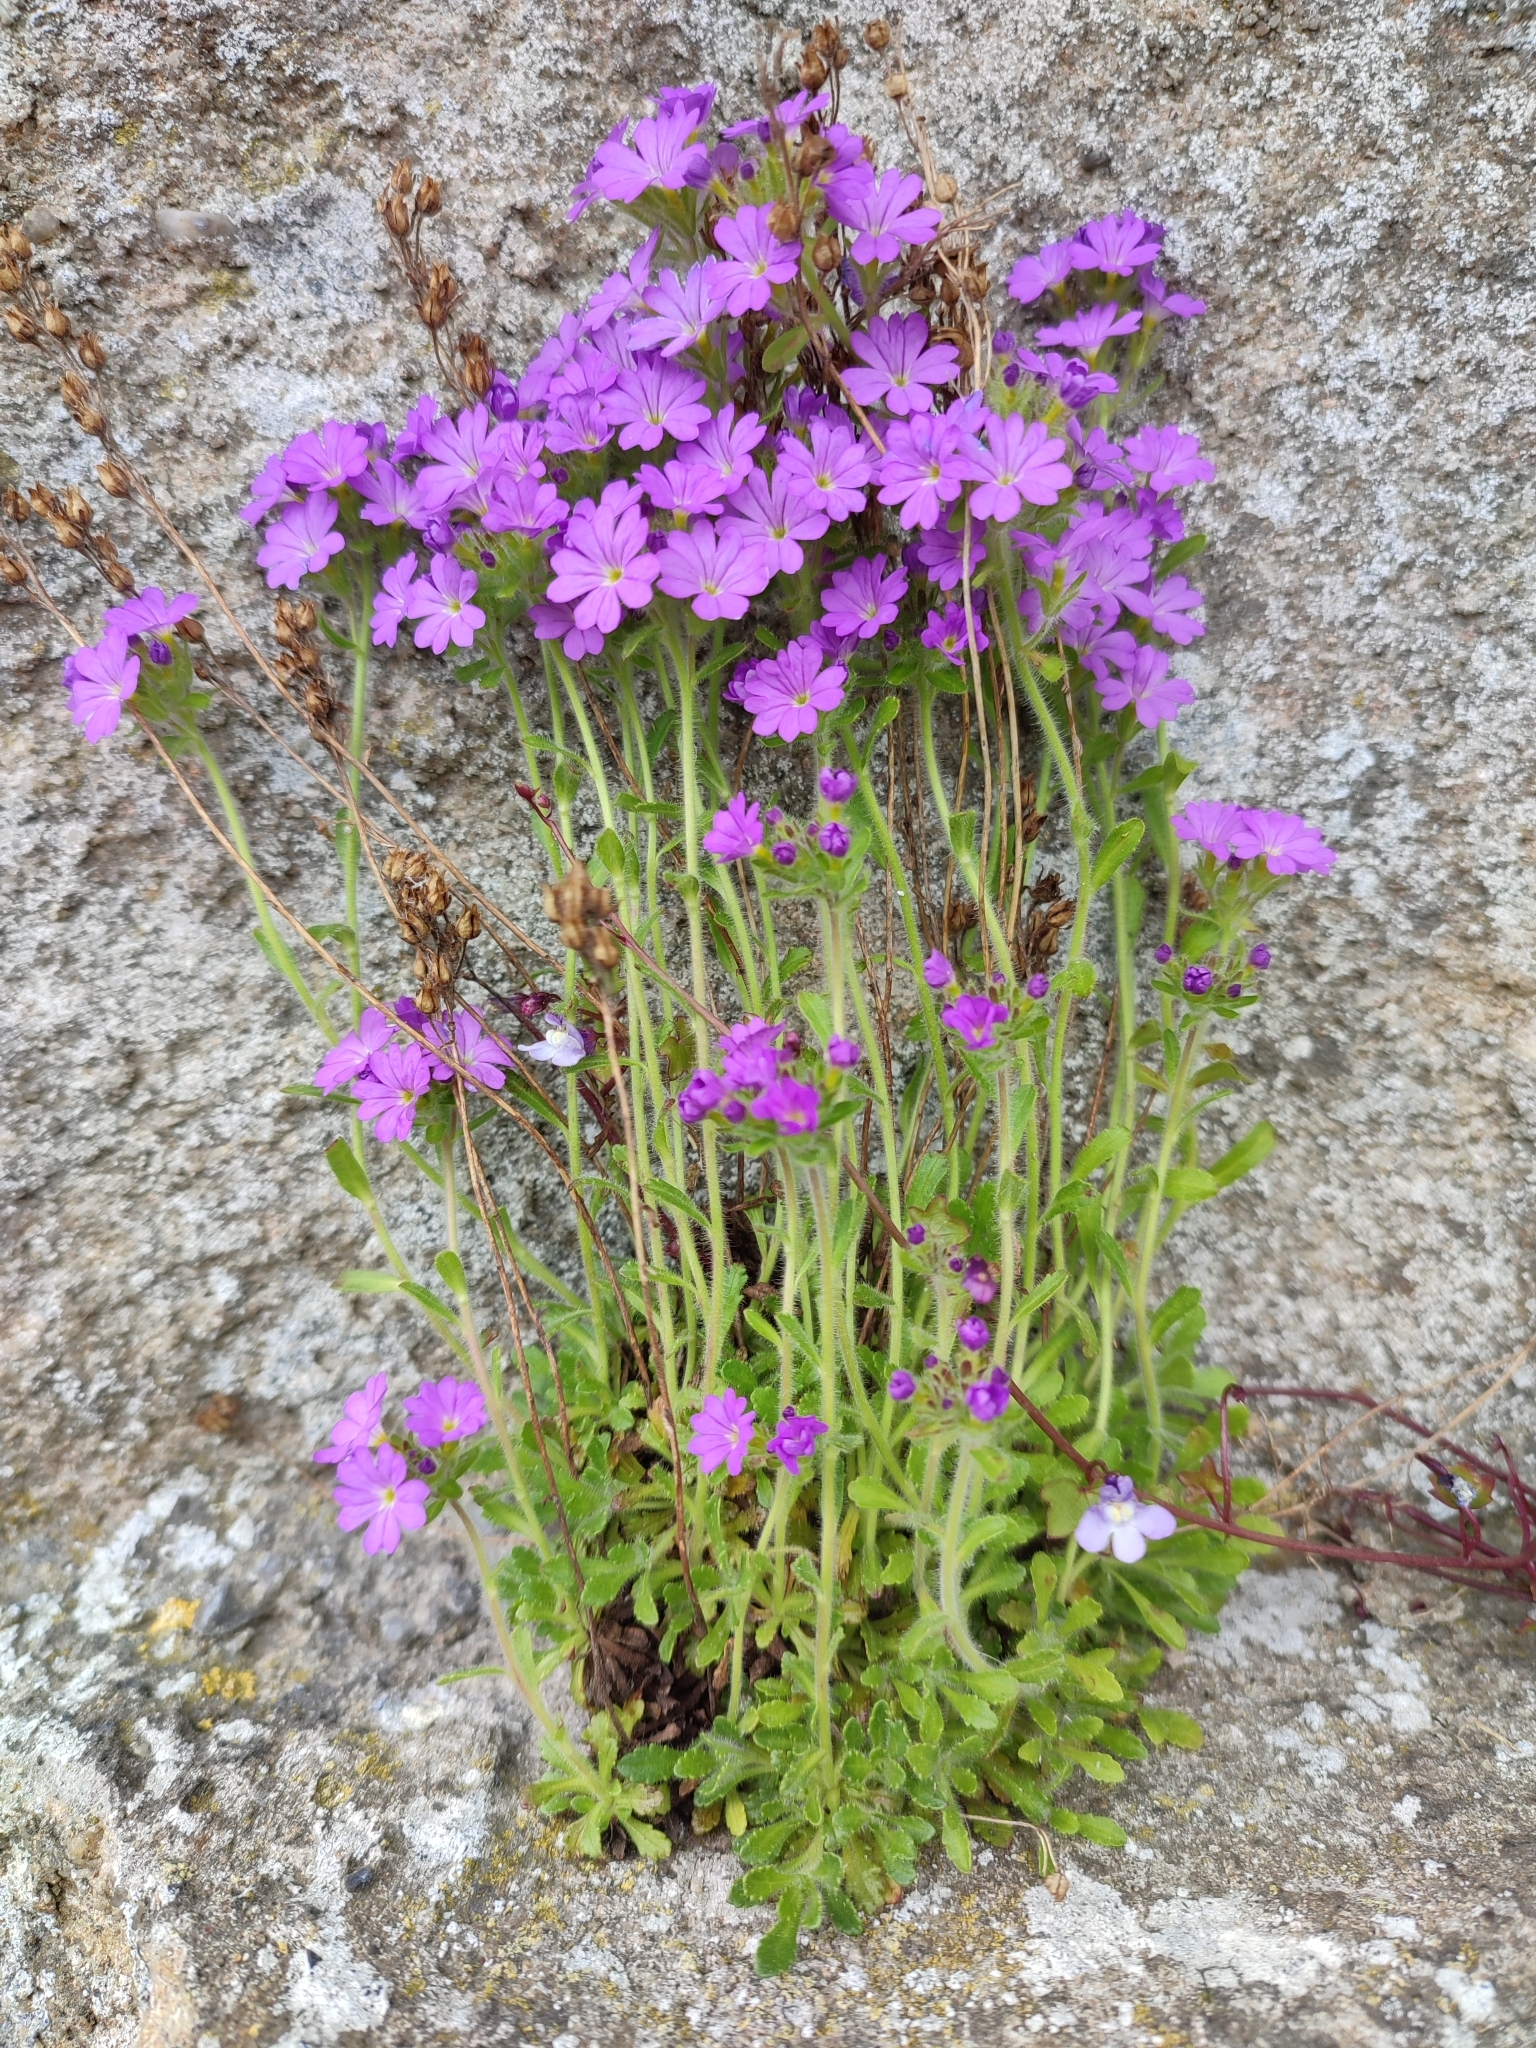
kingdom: Plantae
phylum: Tracheophyta
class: Magnoliopsida
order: Lamiales
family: Plantaginaceae
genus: Erinus
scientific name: Erinus alpinus
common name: Fairy foxglove
